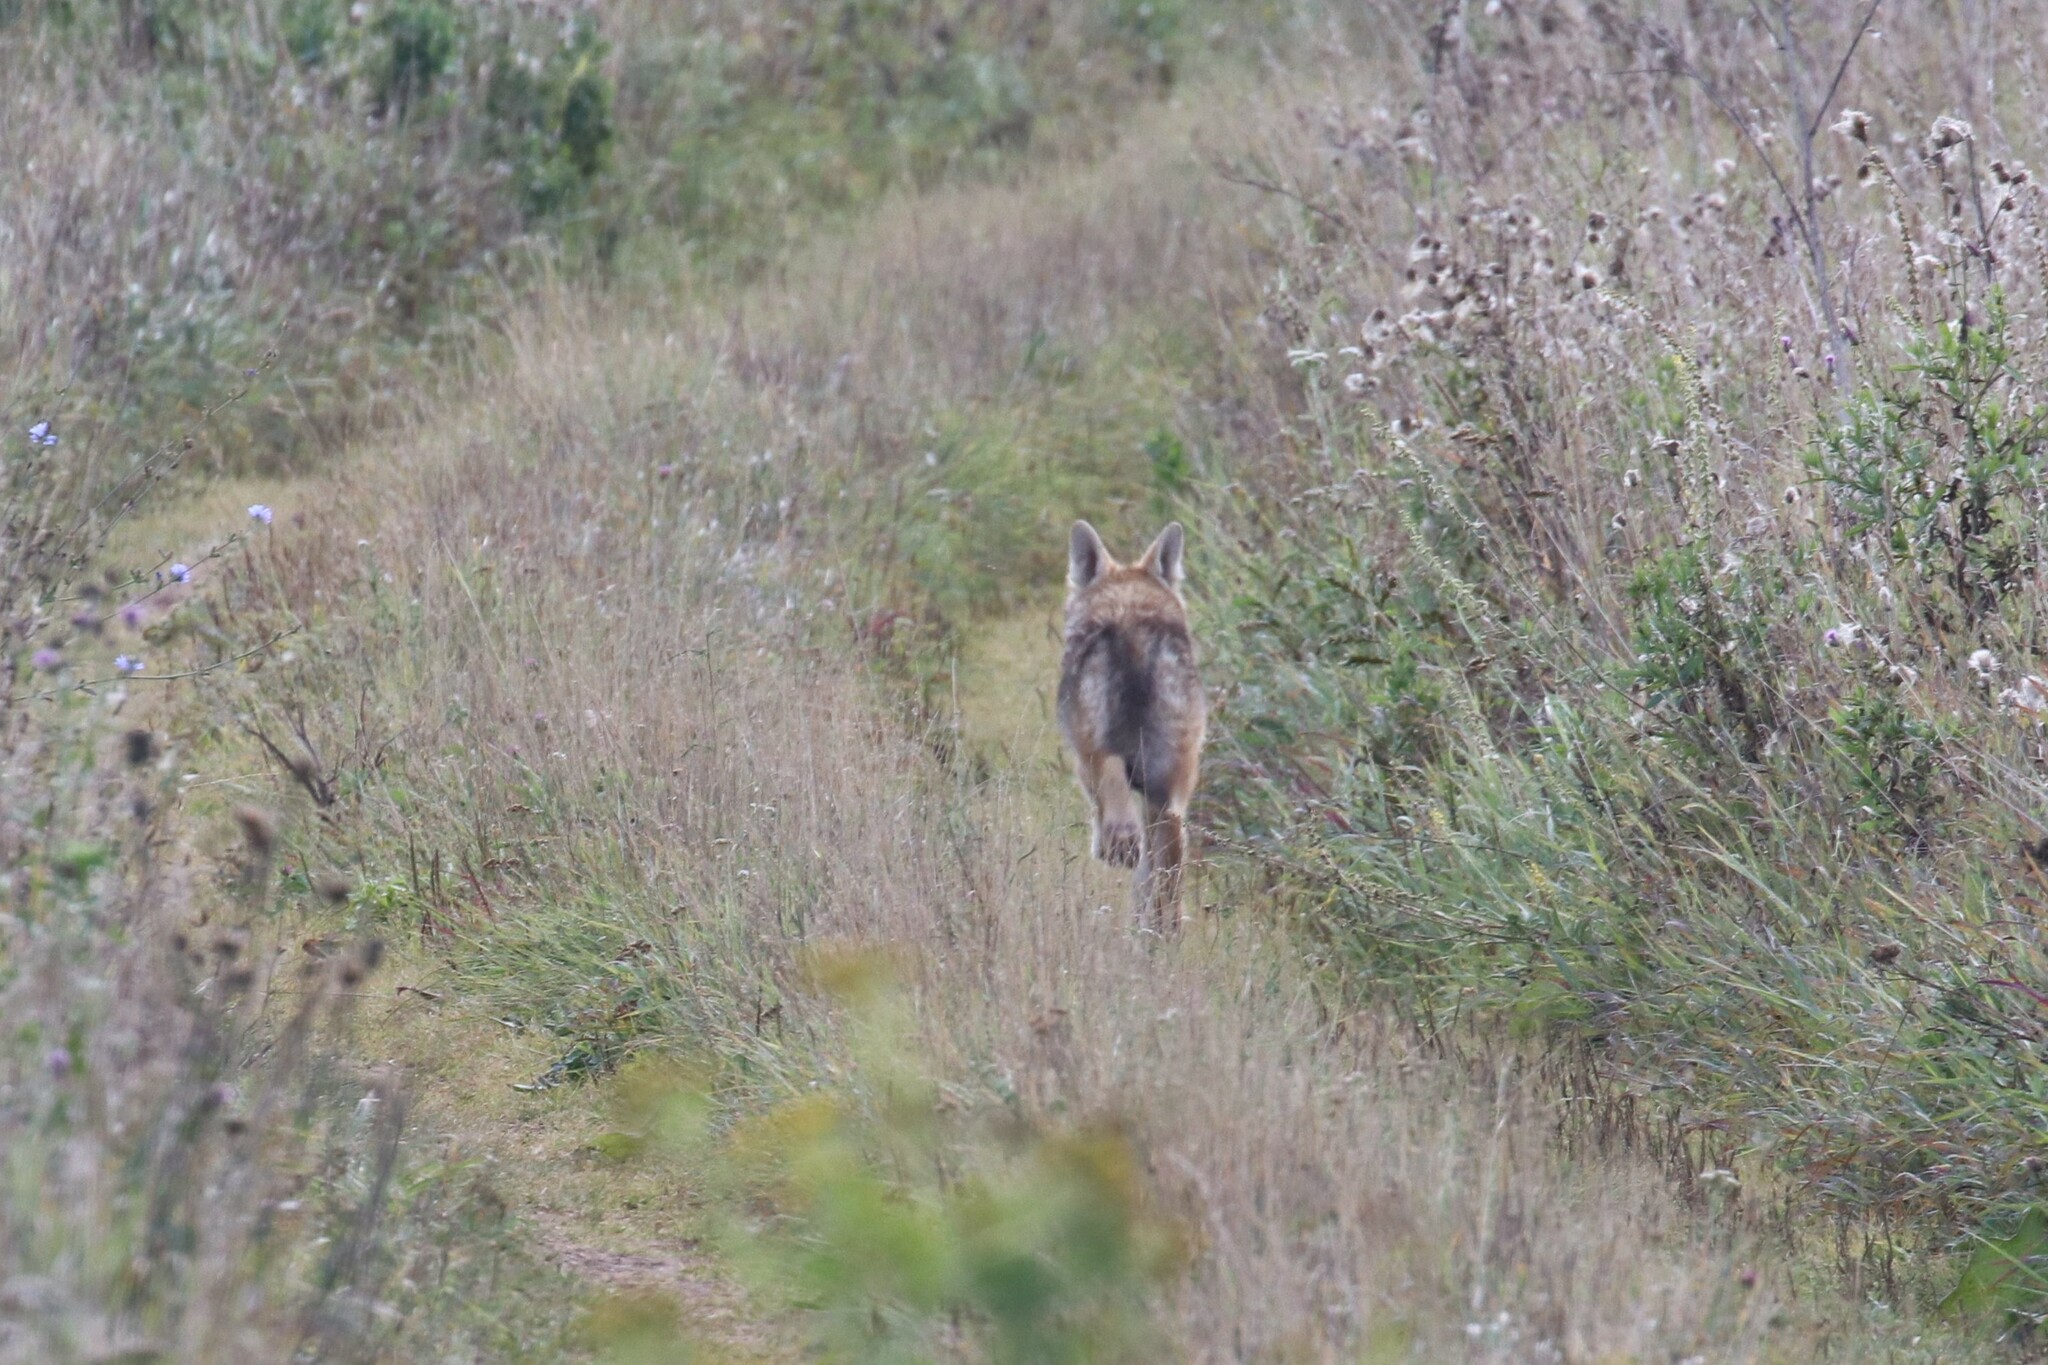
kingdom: Animalia
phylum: Chordata
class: Mammalia
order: Carnivora
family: Canidae
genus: Vulpes
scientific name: Vulpes vulpes
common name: Red fox
